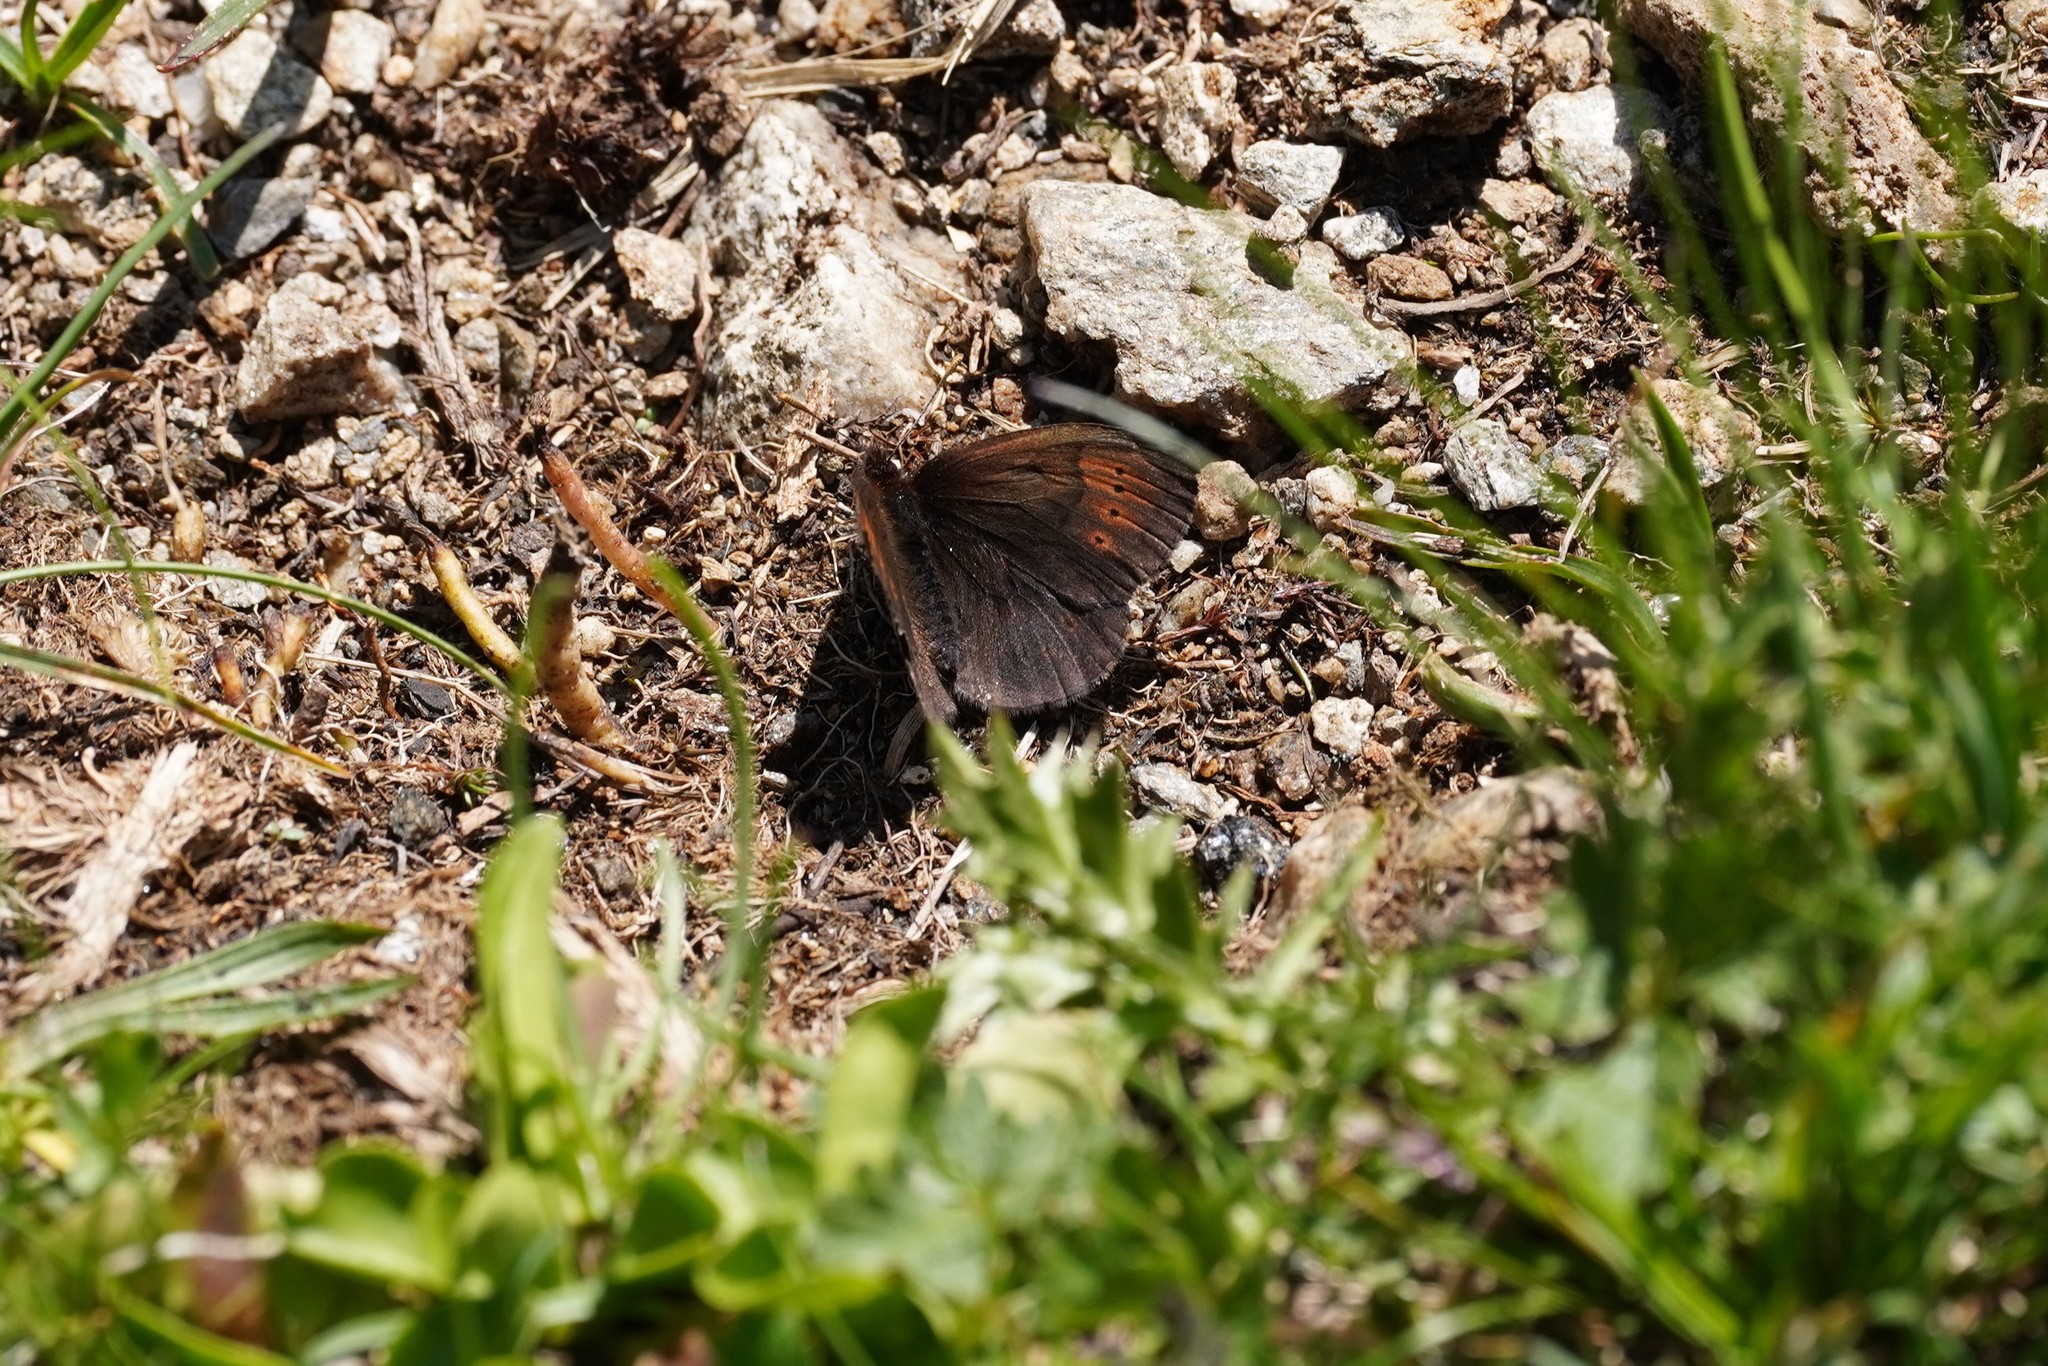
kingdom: Animalia
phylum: Arthropoda
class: Insecta
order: Lepidoptera
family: Nymphalidae
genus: Erebia
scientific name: Erebia pandrose
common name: Dewy ringlet
